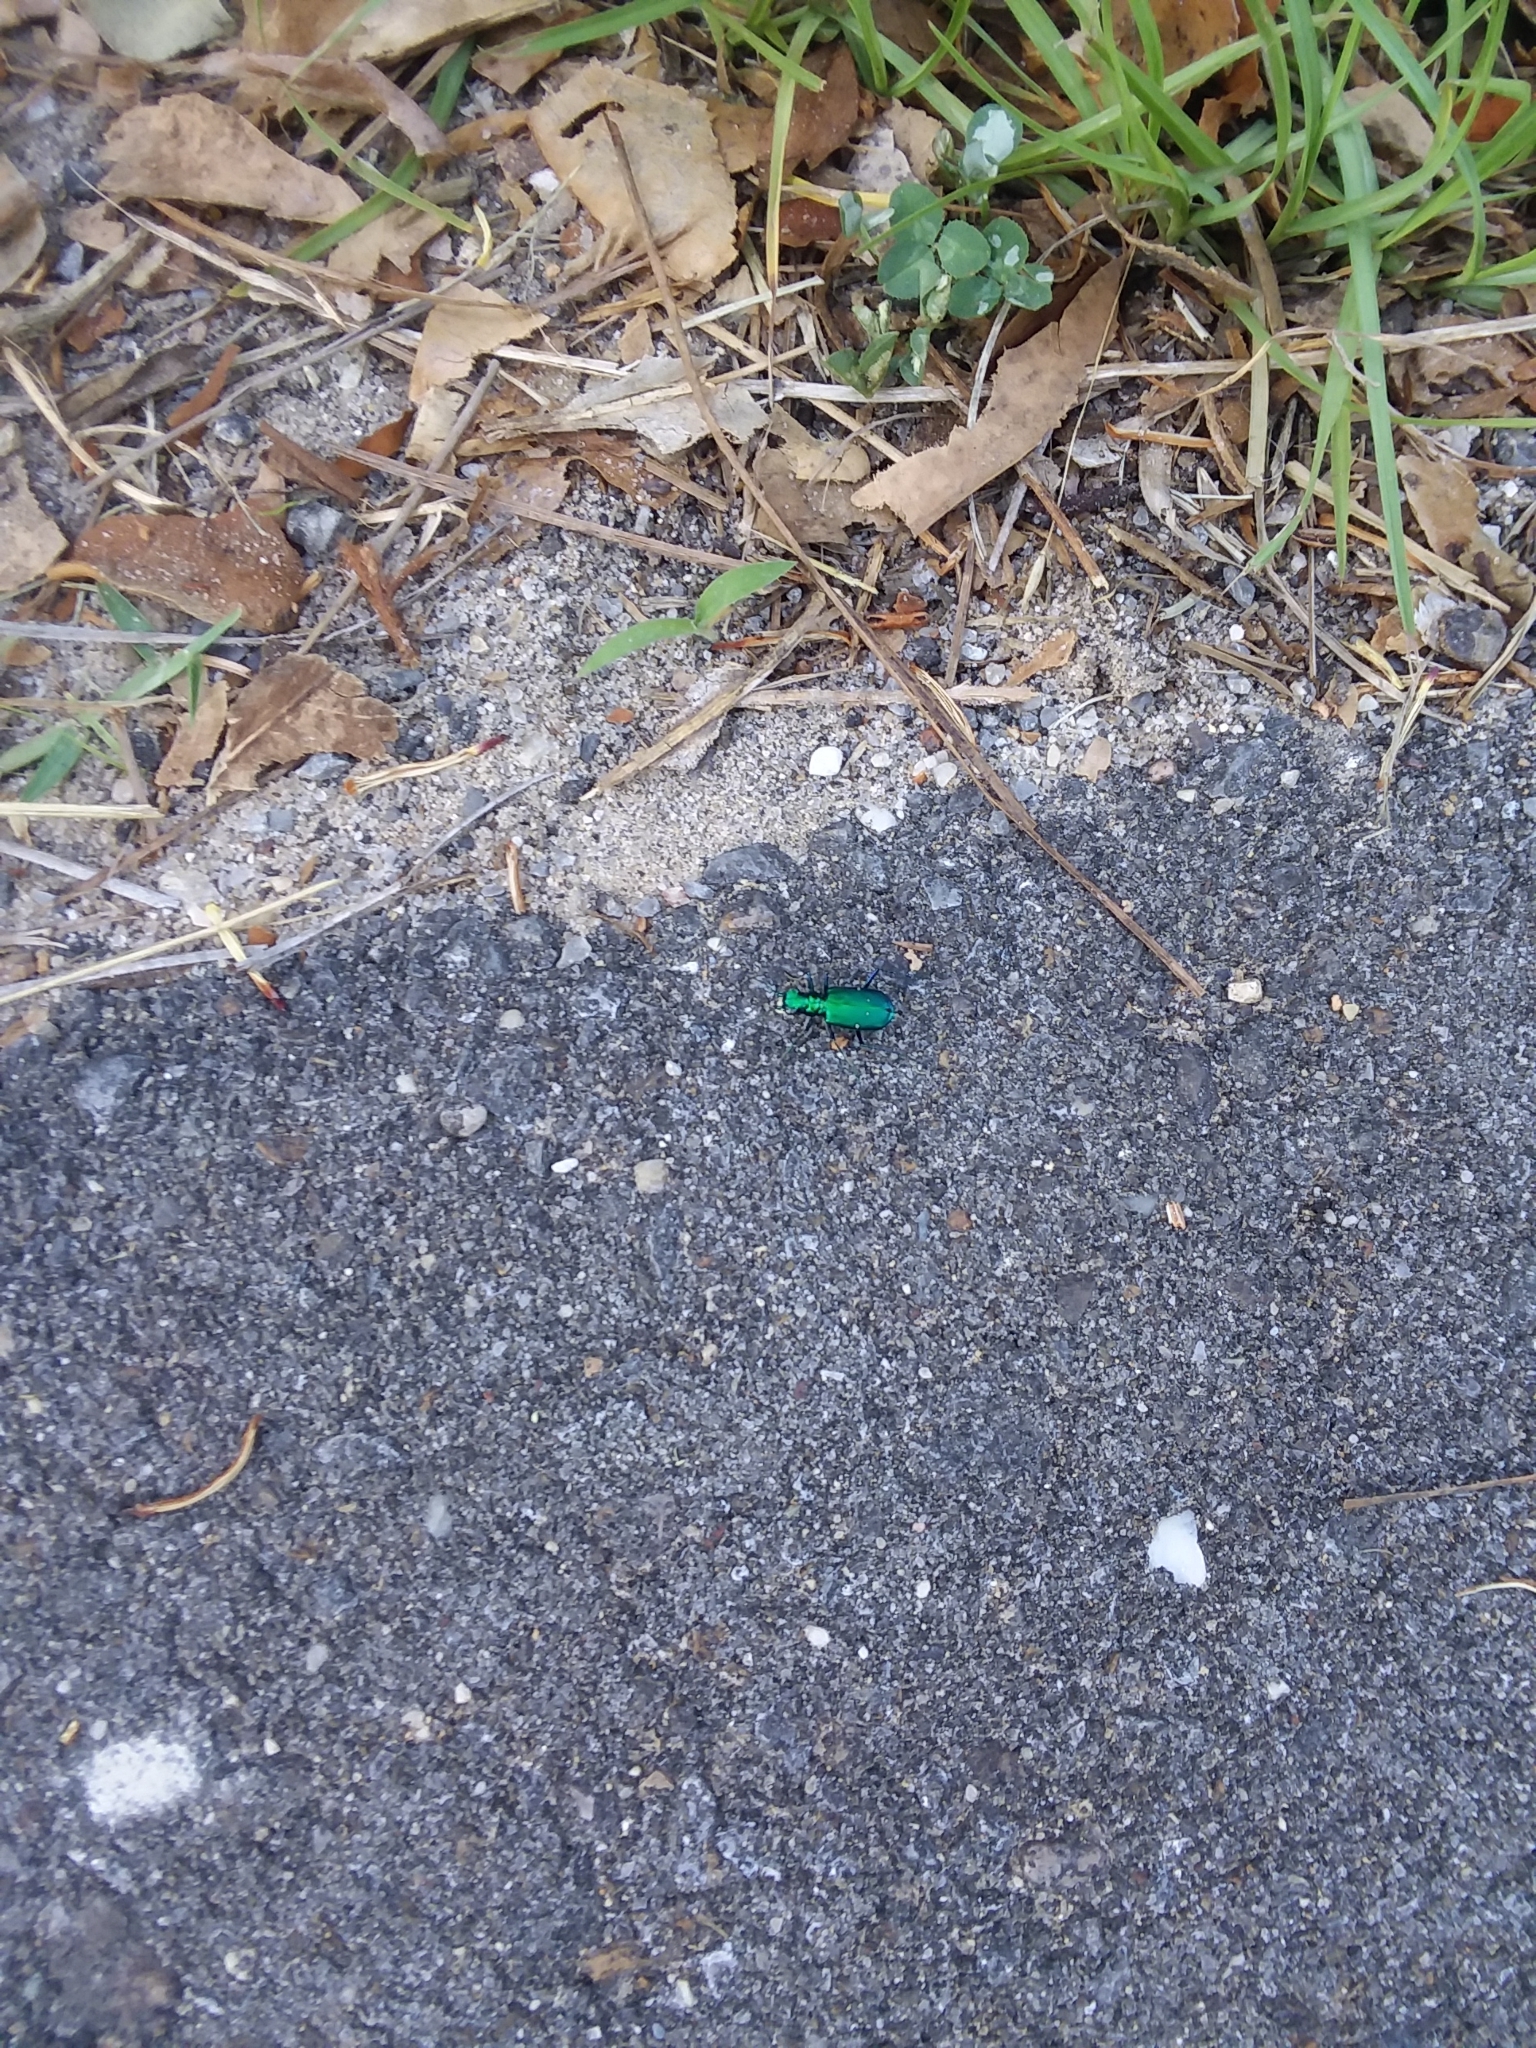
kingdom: Animalia
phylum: Arthropoda
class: Insecta
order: Coleoptera
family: Carabidae
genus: Cicindela
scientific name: Cicindela sexguttata
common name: Six-spotted tiger beetle
